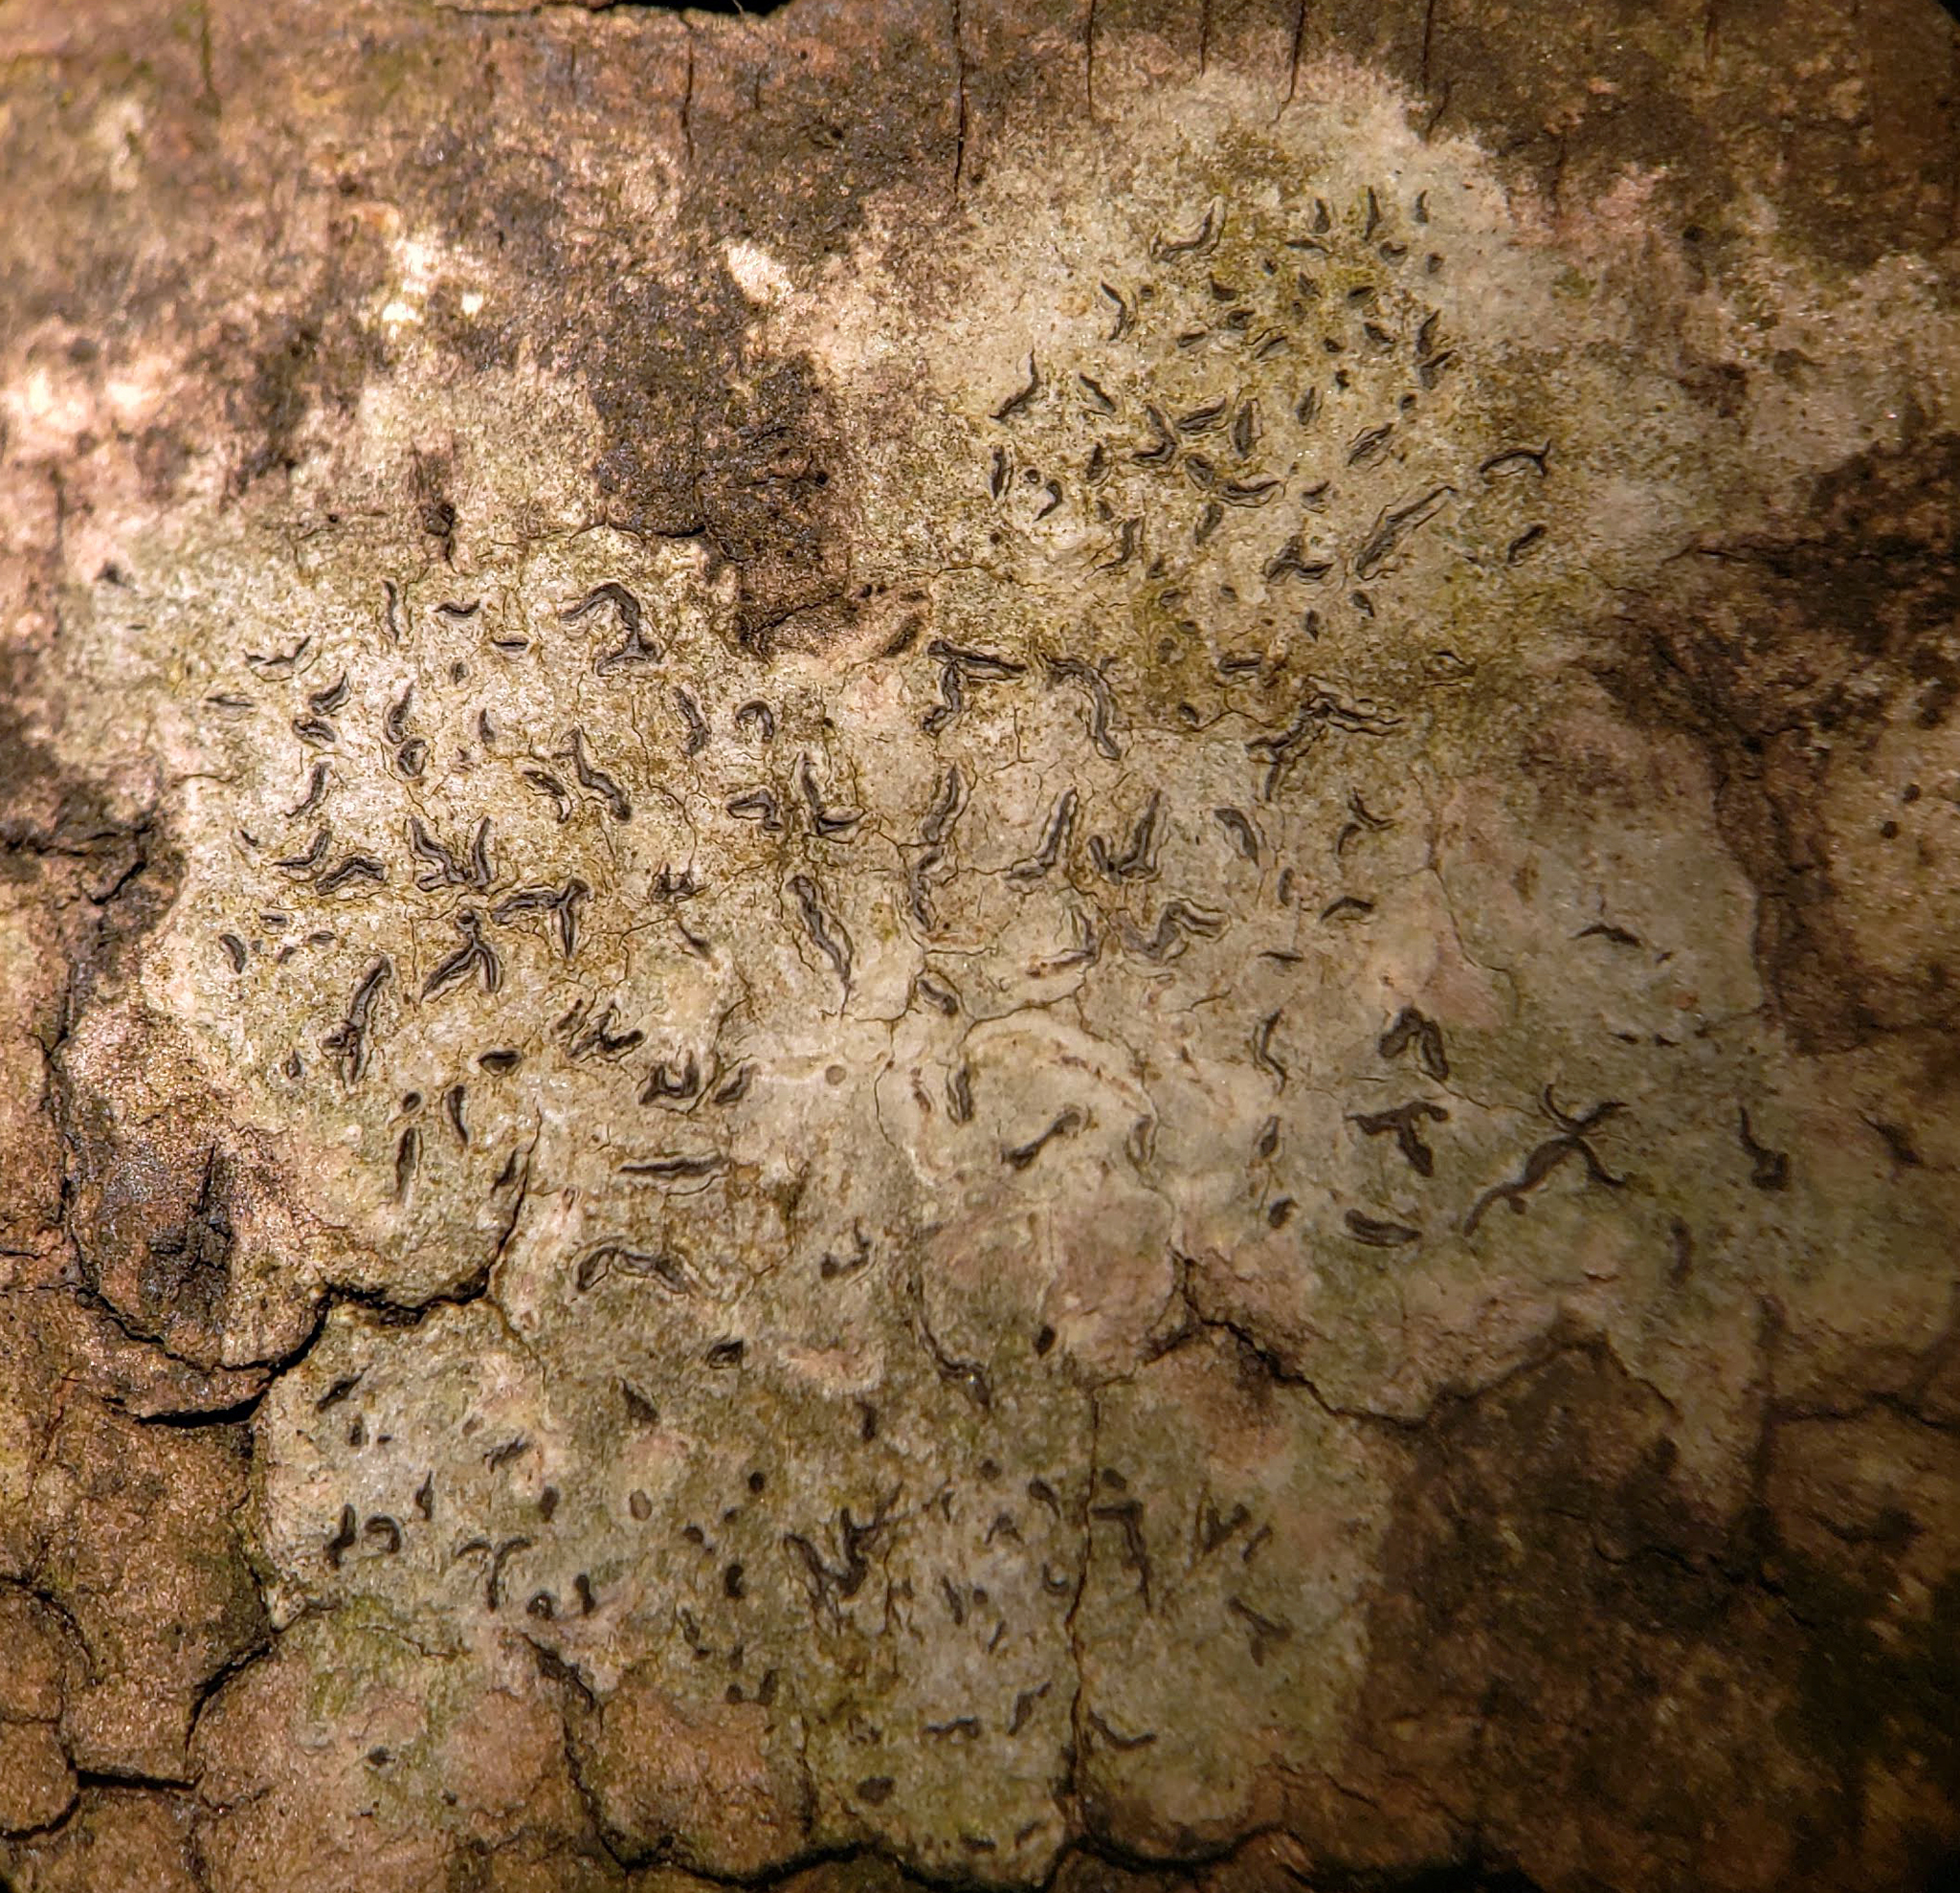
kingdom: Fungi
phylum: Ascomycota
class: Lecanoromycetes
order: Ostropales
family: Graphidaceae
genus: Graphis
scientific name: Graphis scripta
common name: Script lichen
